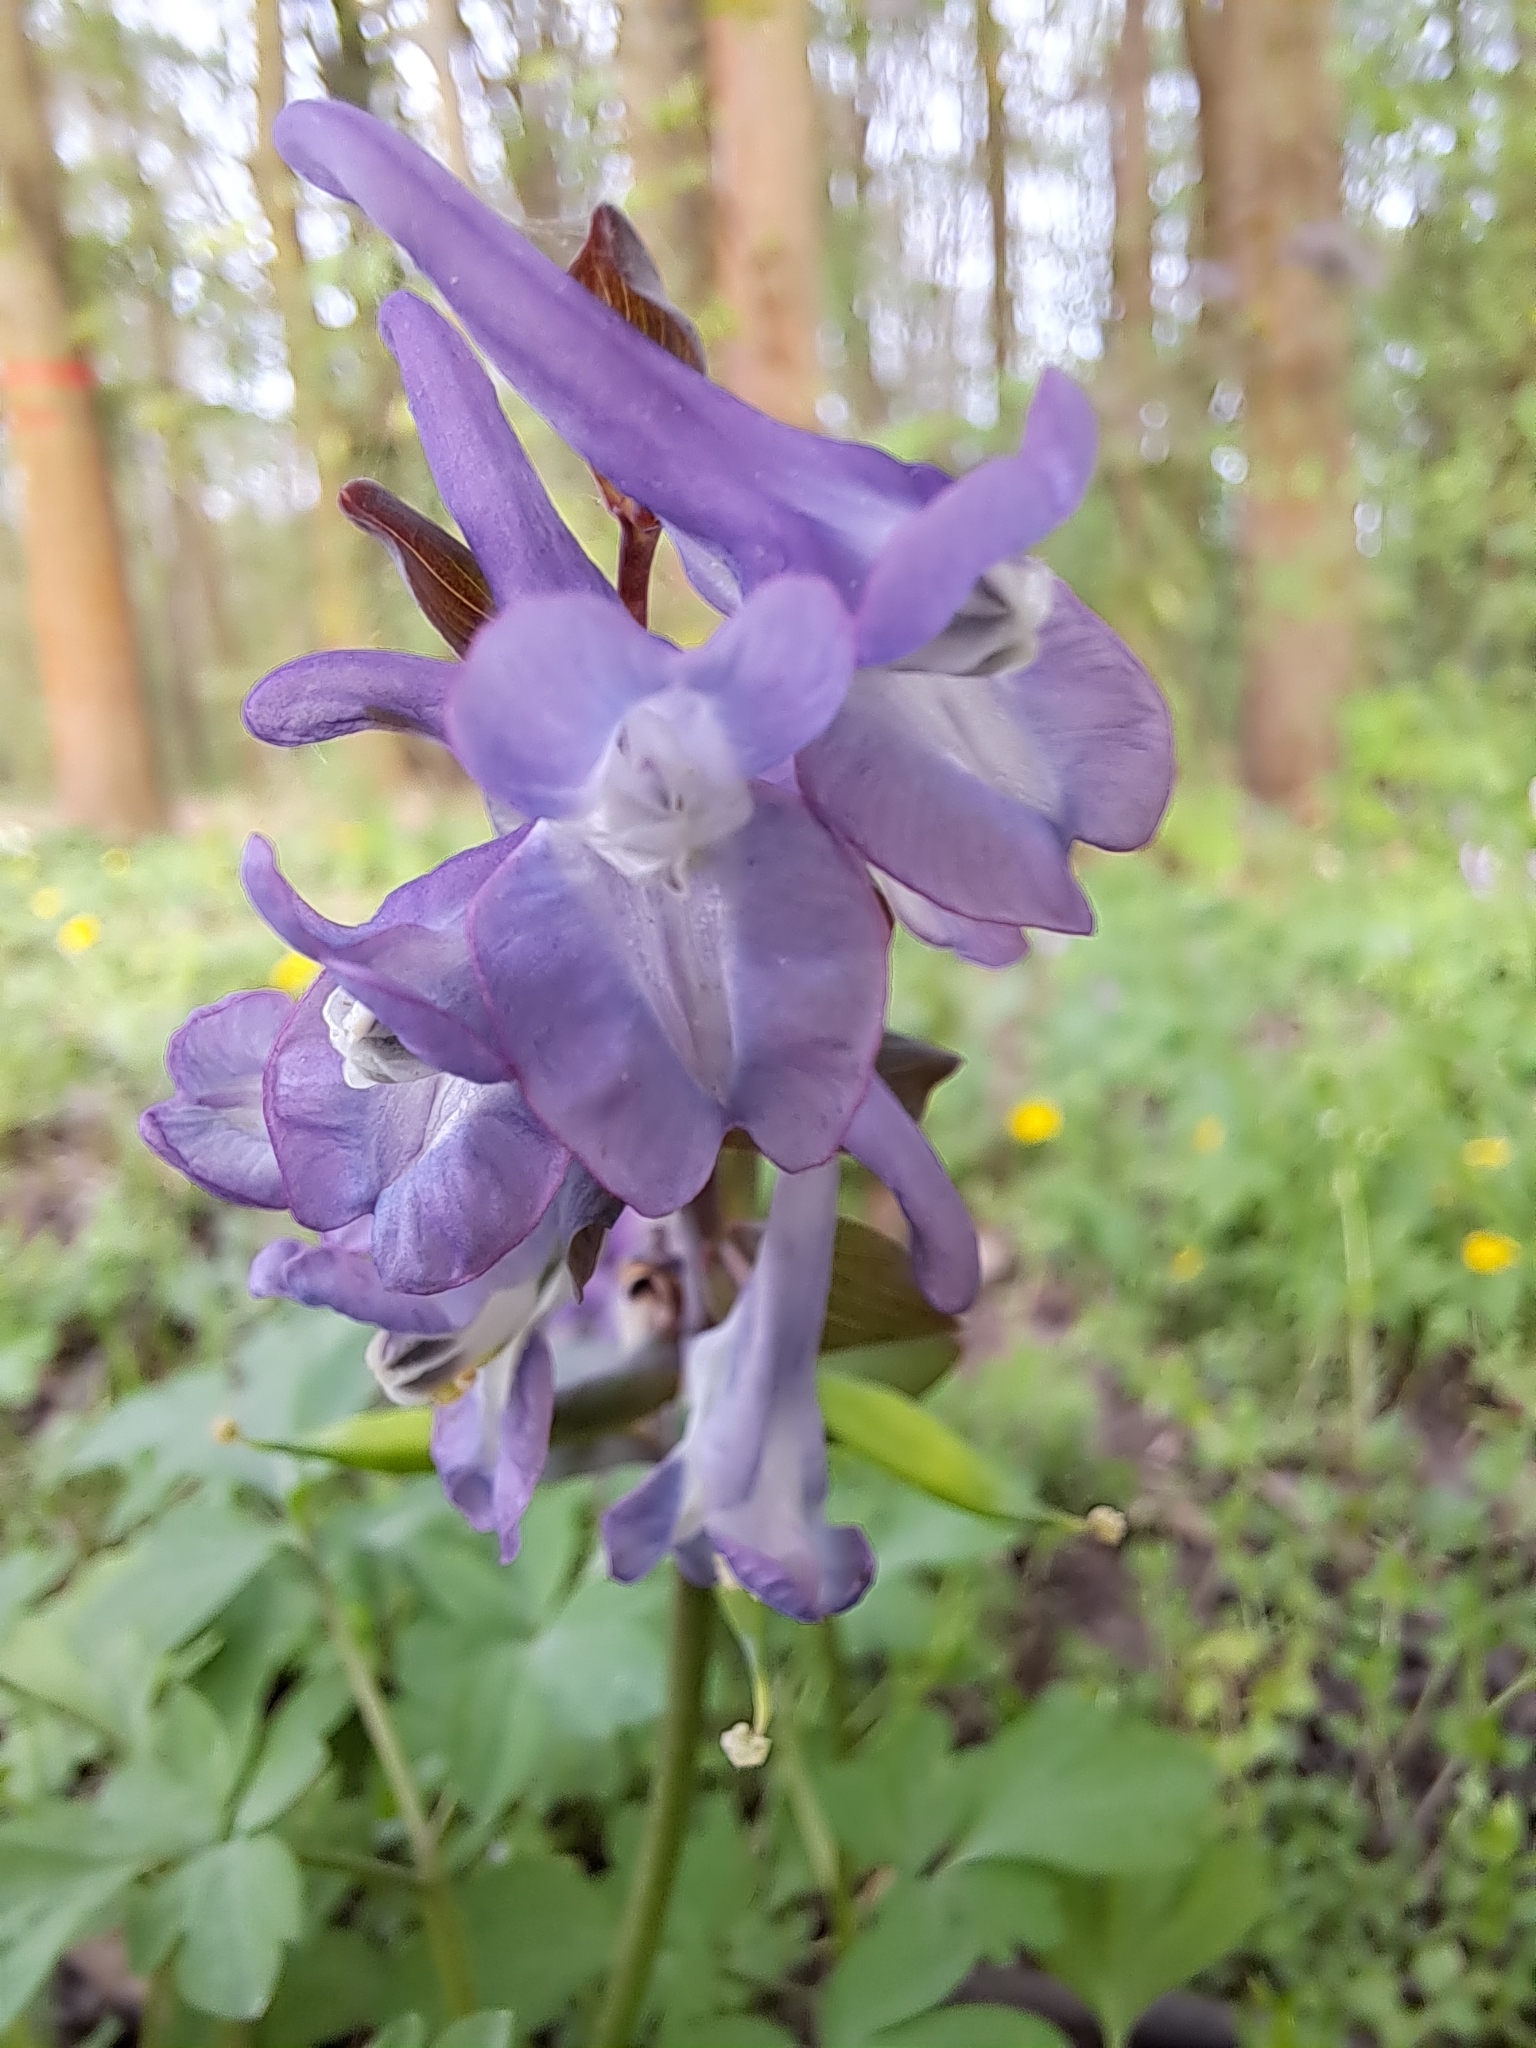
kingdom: Plantae
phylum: Tracheophyta
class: Magnoliopsida
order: Ranunculales
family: Papaveraceae
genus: Corydalis
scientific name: Corydalis cava
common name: Hollowroot
